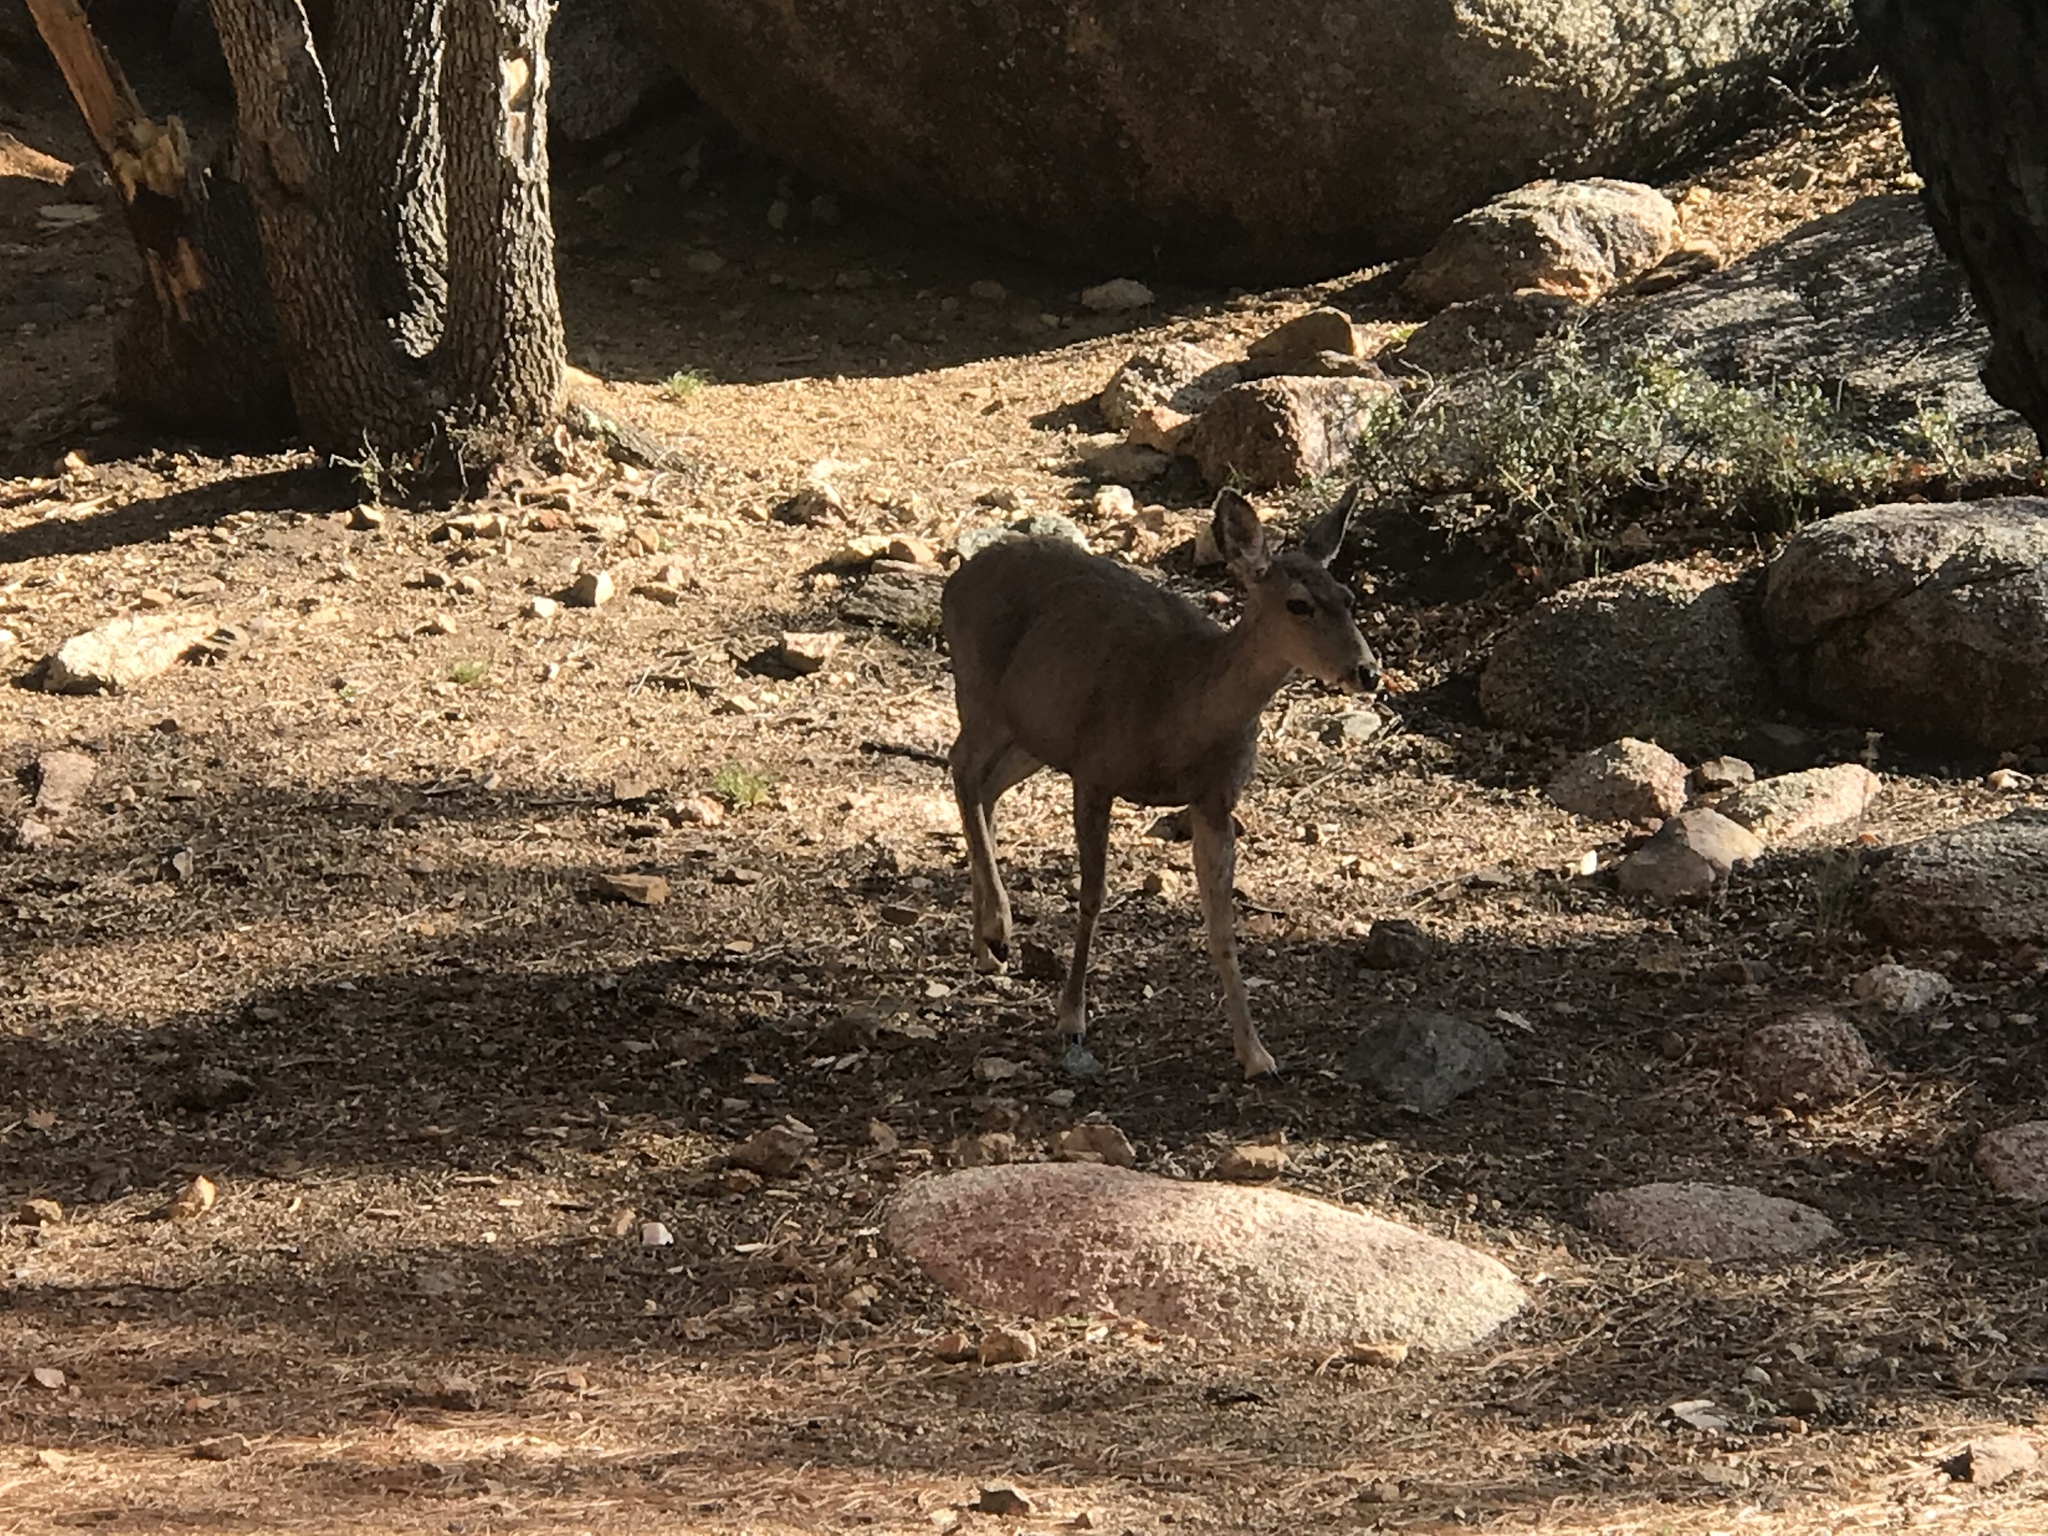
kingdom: Animalia
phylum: Chordata
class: Mammalia
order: Artiodactyla
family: Cervidae
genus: Odocoileus
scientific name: Odocoileus hemionus
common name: Mule deer
